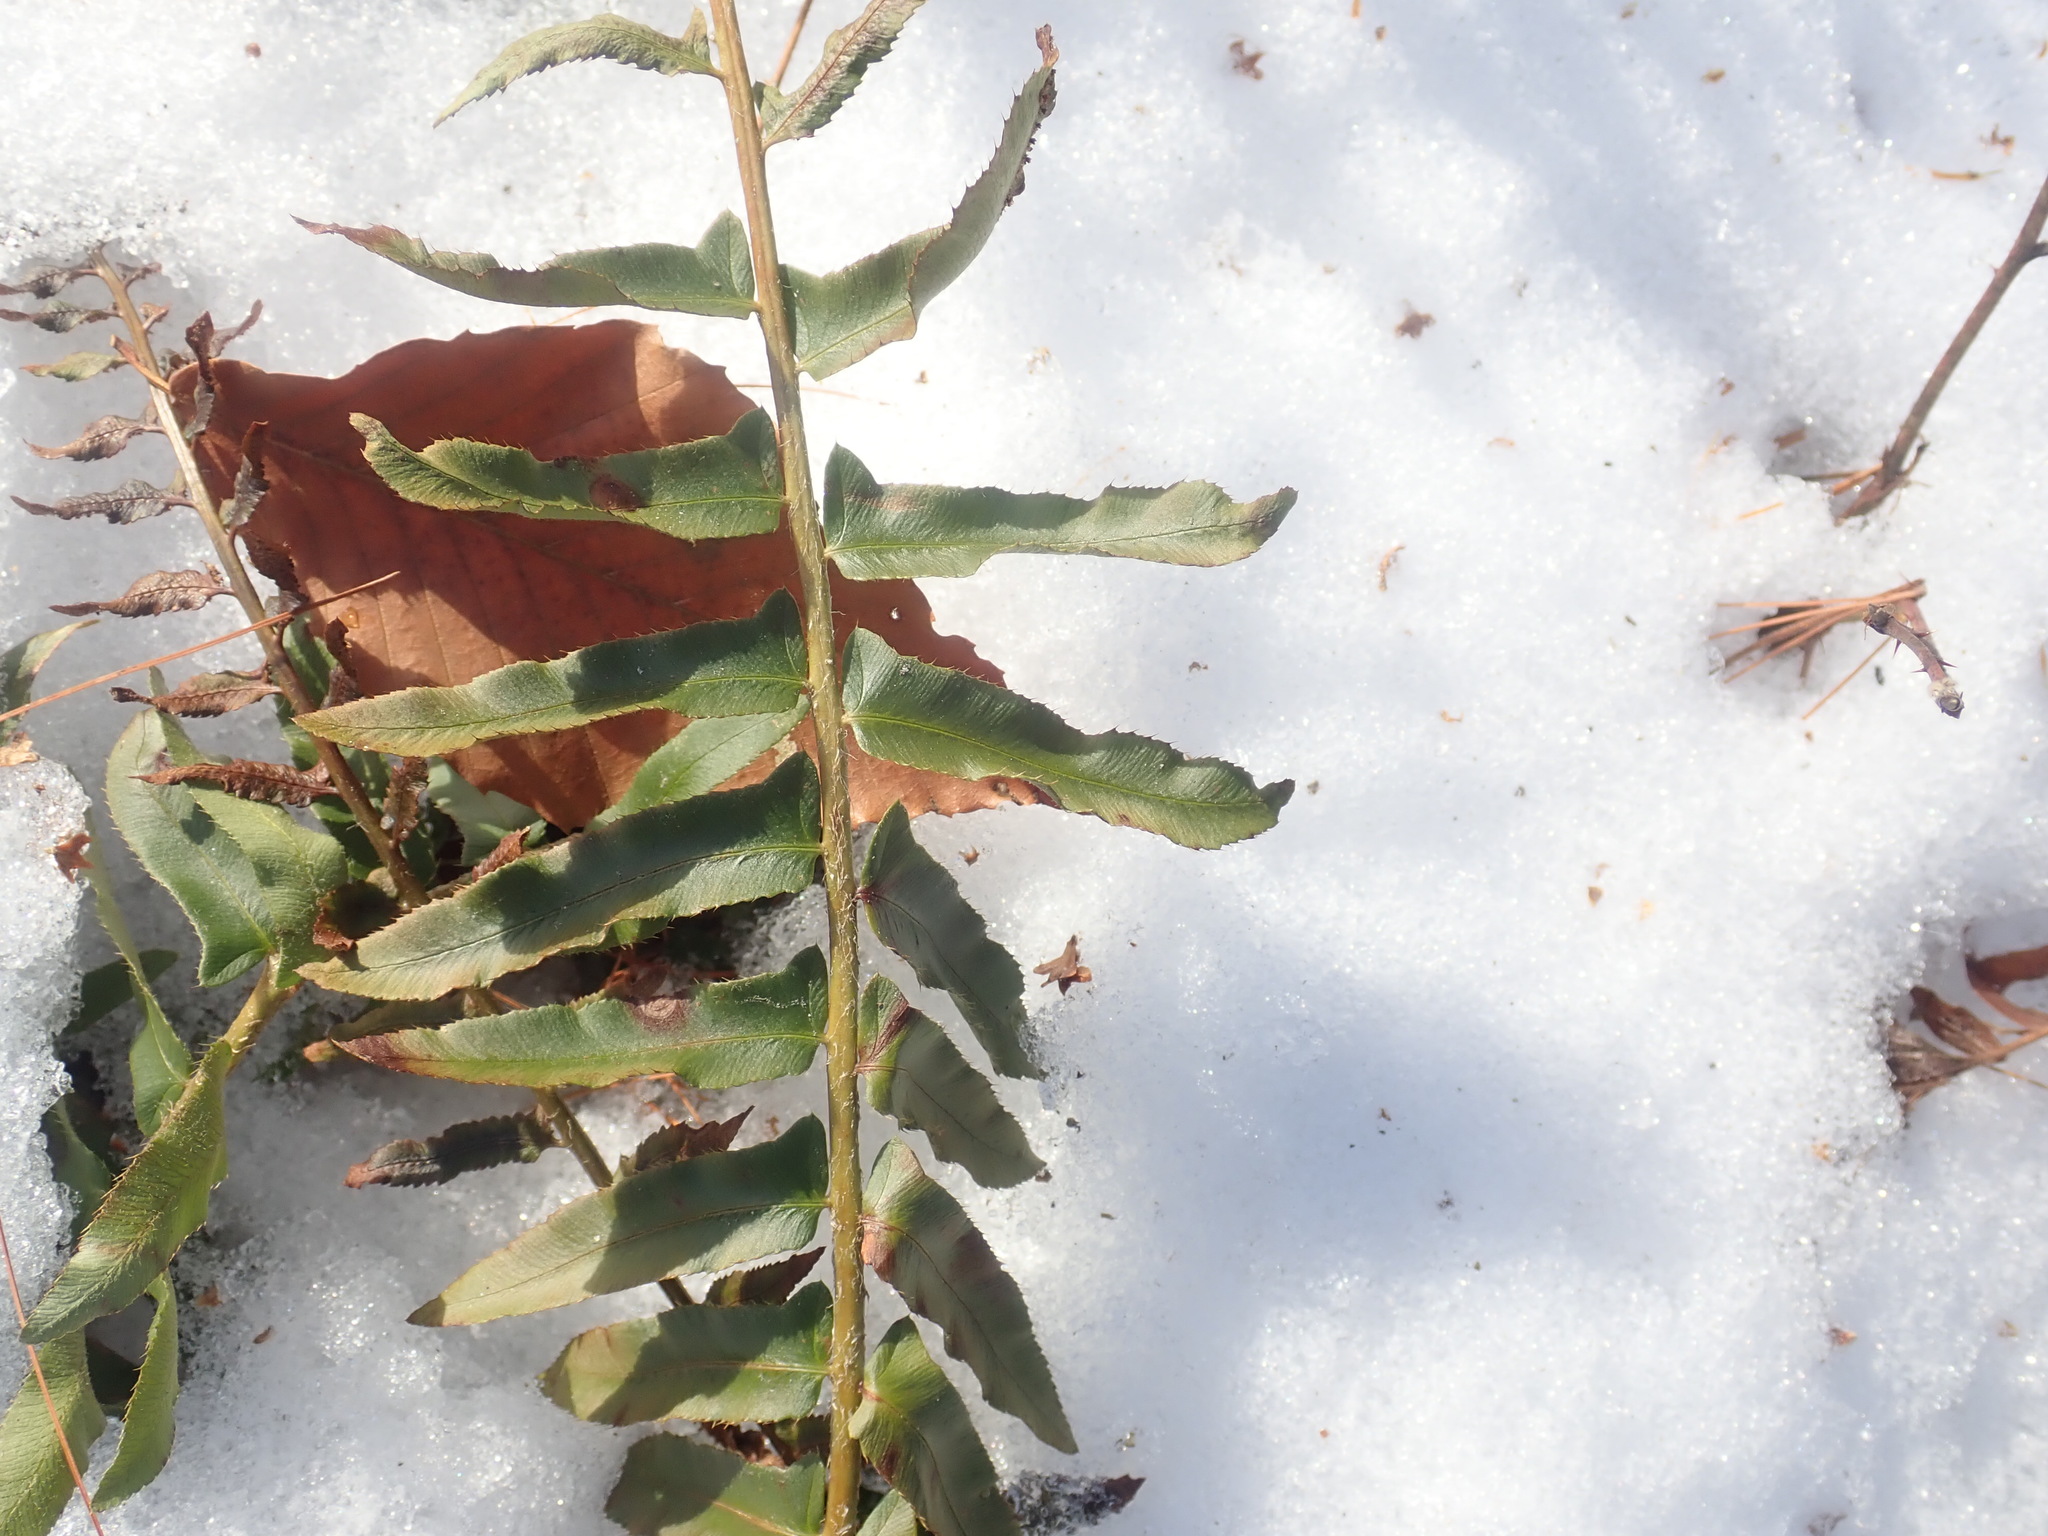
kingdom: Plantae
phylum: Tracheophyta
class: Polypodiopsida
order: Polypodiales
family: Dryopteridaceae
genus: Polystichum
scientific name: Polystichum acrostichoides
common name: Christmas fern
